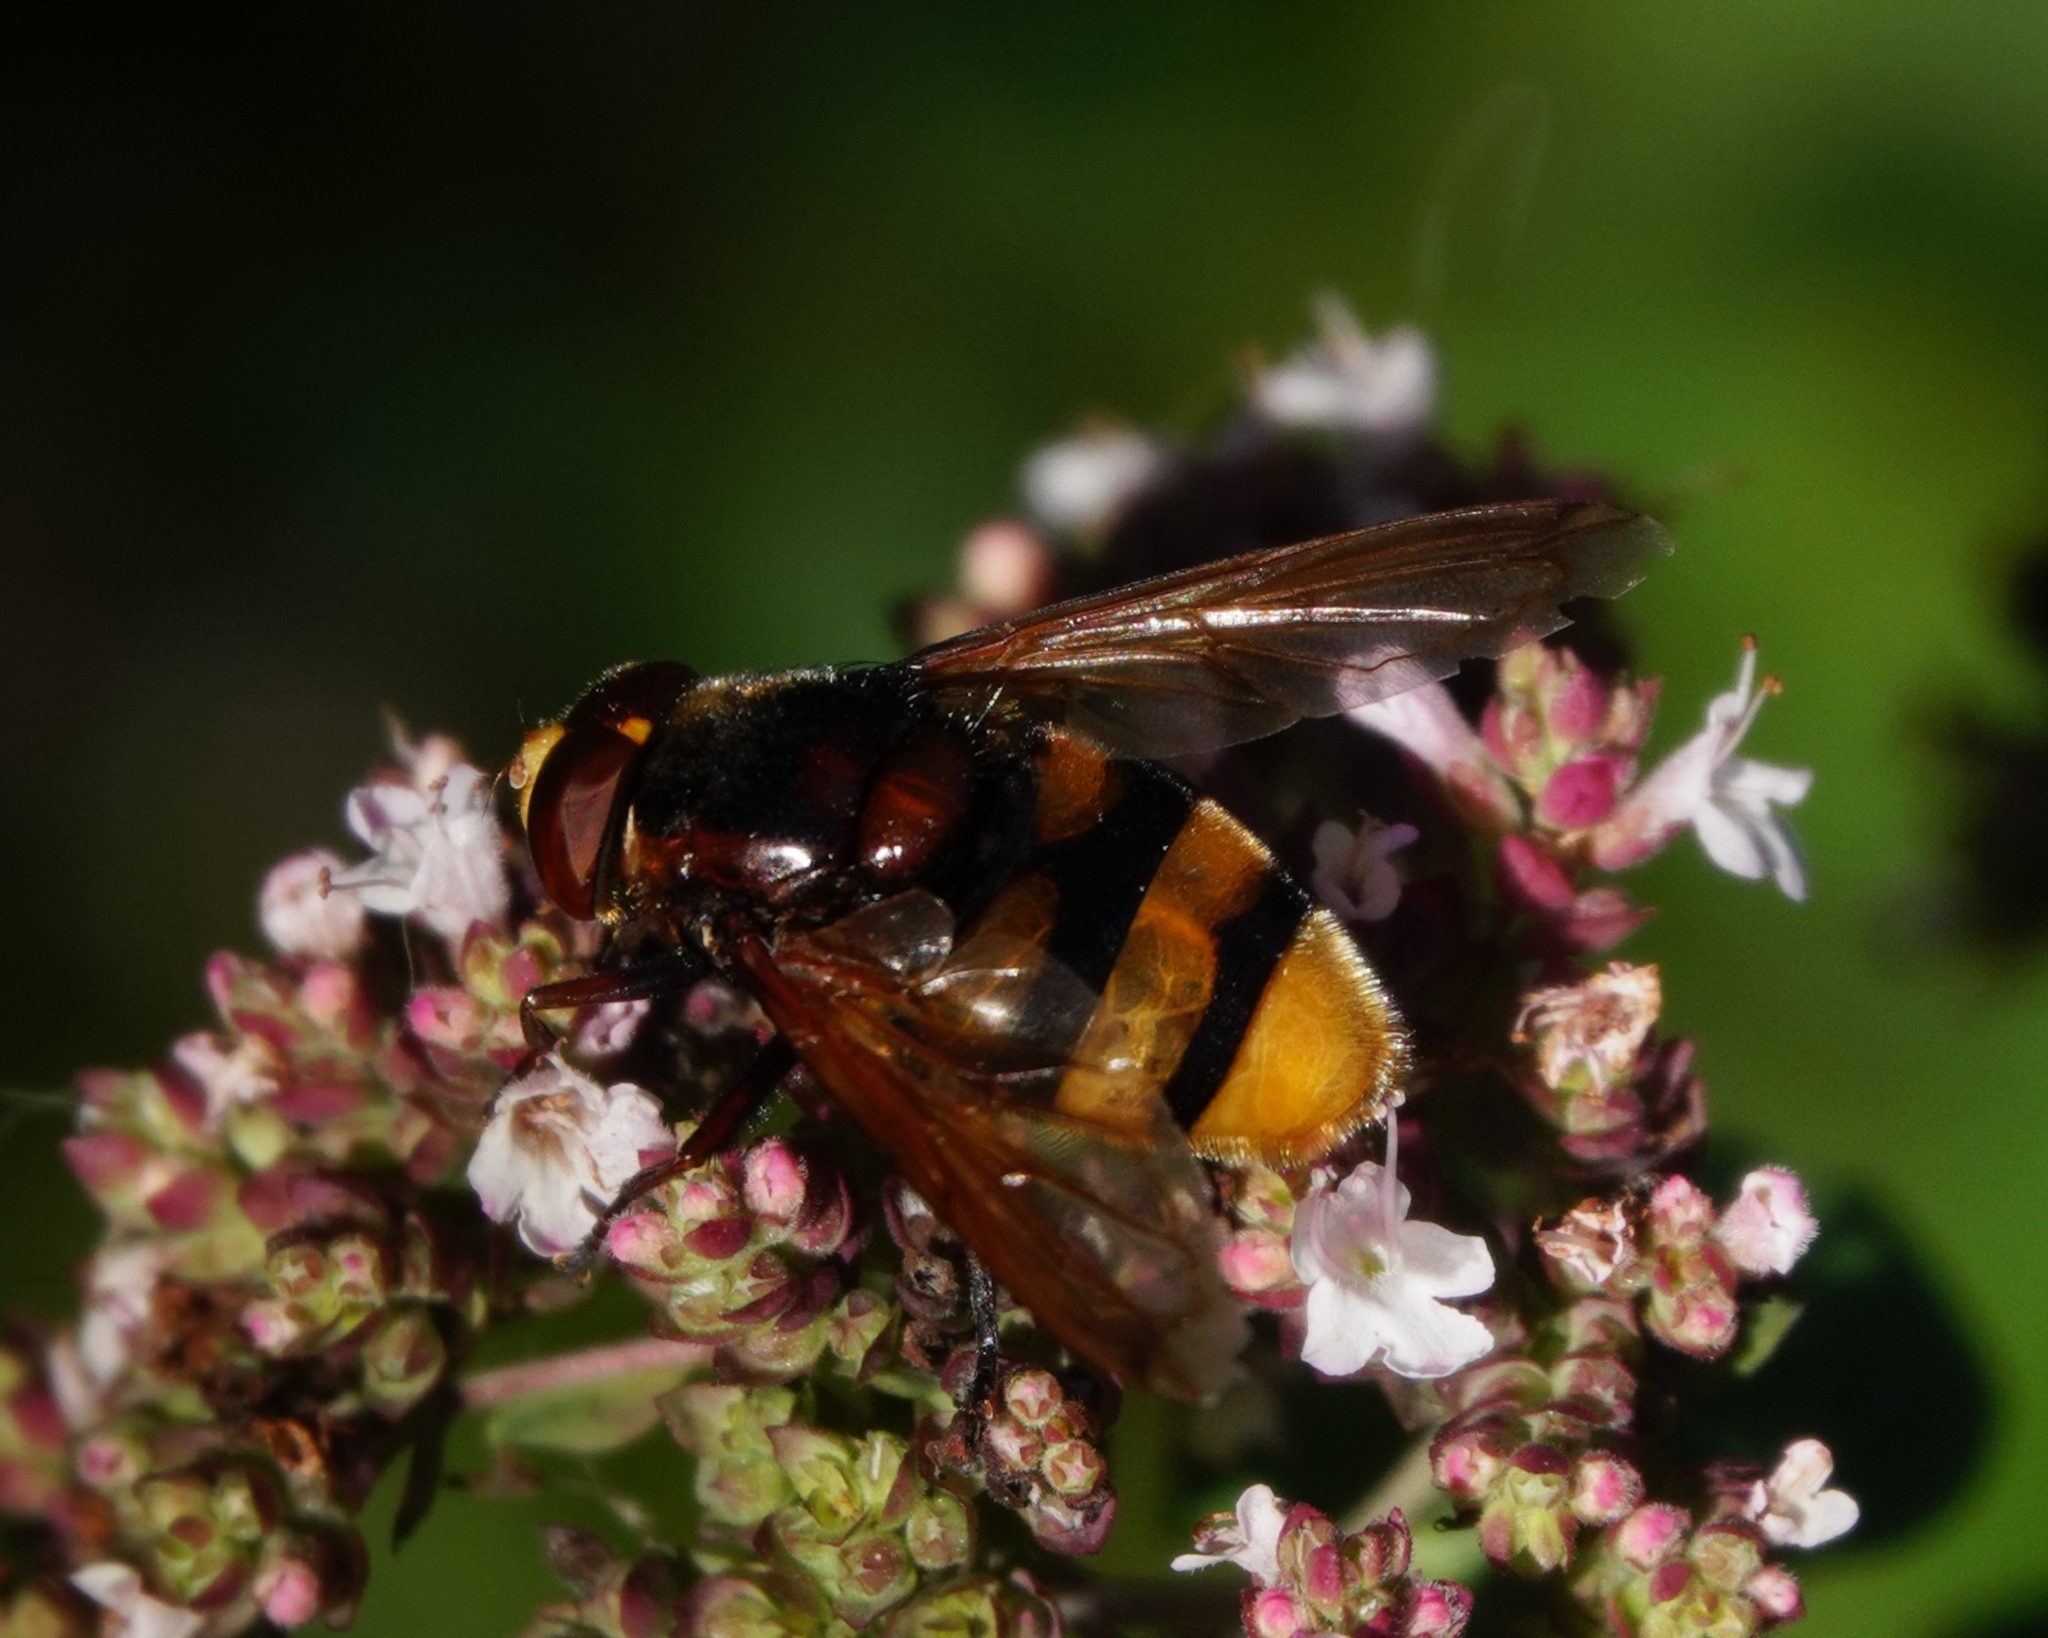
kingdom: Animalia
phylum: Arthropoda
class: Insecta
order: Diptera
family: Syrphidae
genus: Volucella
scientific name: Volucella zonaria
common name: Hornet hoverfly
